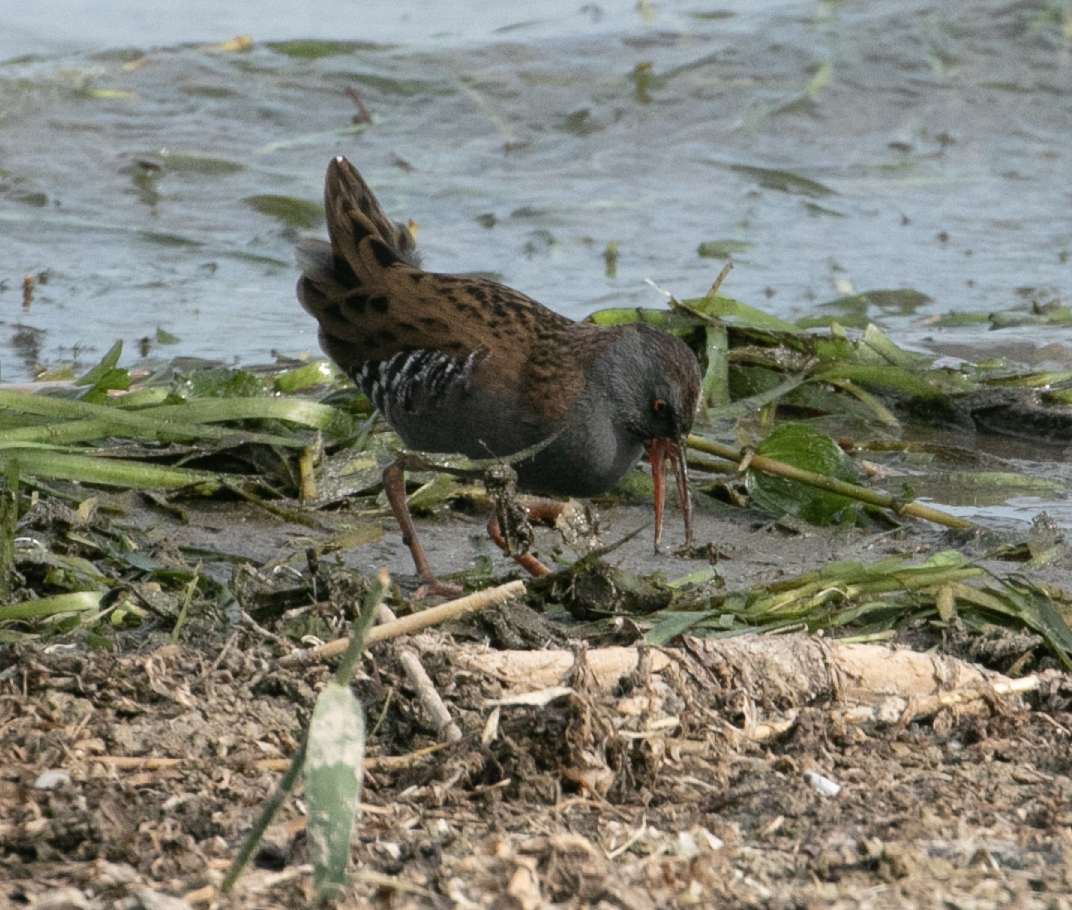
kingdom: Animalia
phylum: Chordata
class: Aves
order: Gruiformes
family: Rallidae
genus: Rallus
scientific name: Rallus aquaticus
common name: Water rail
